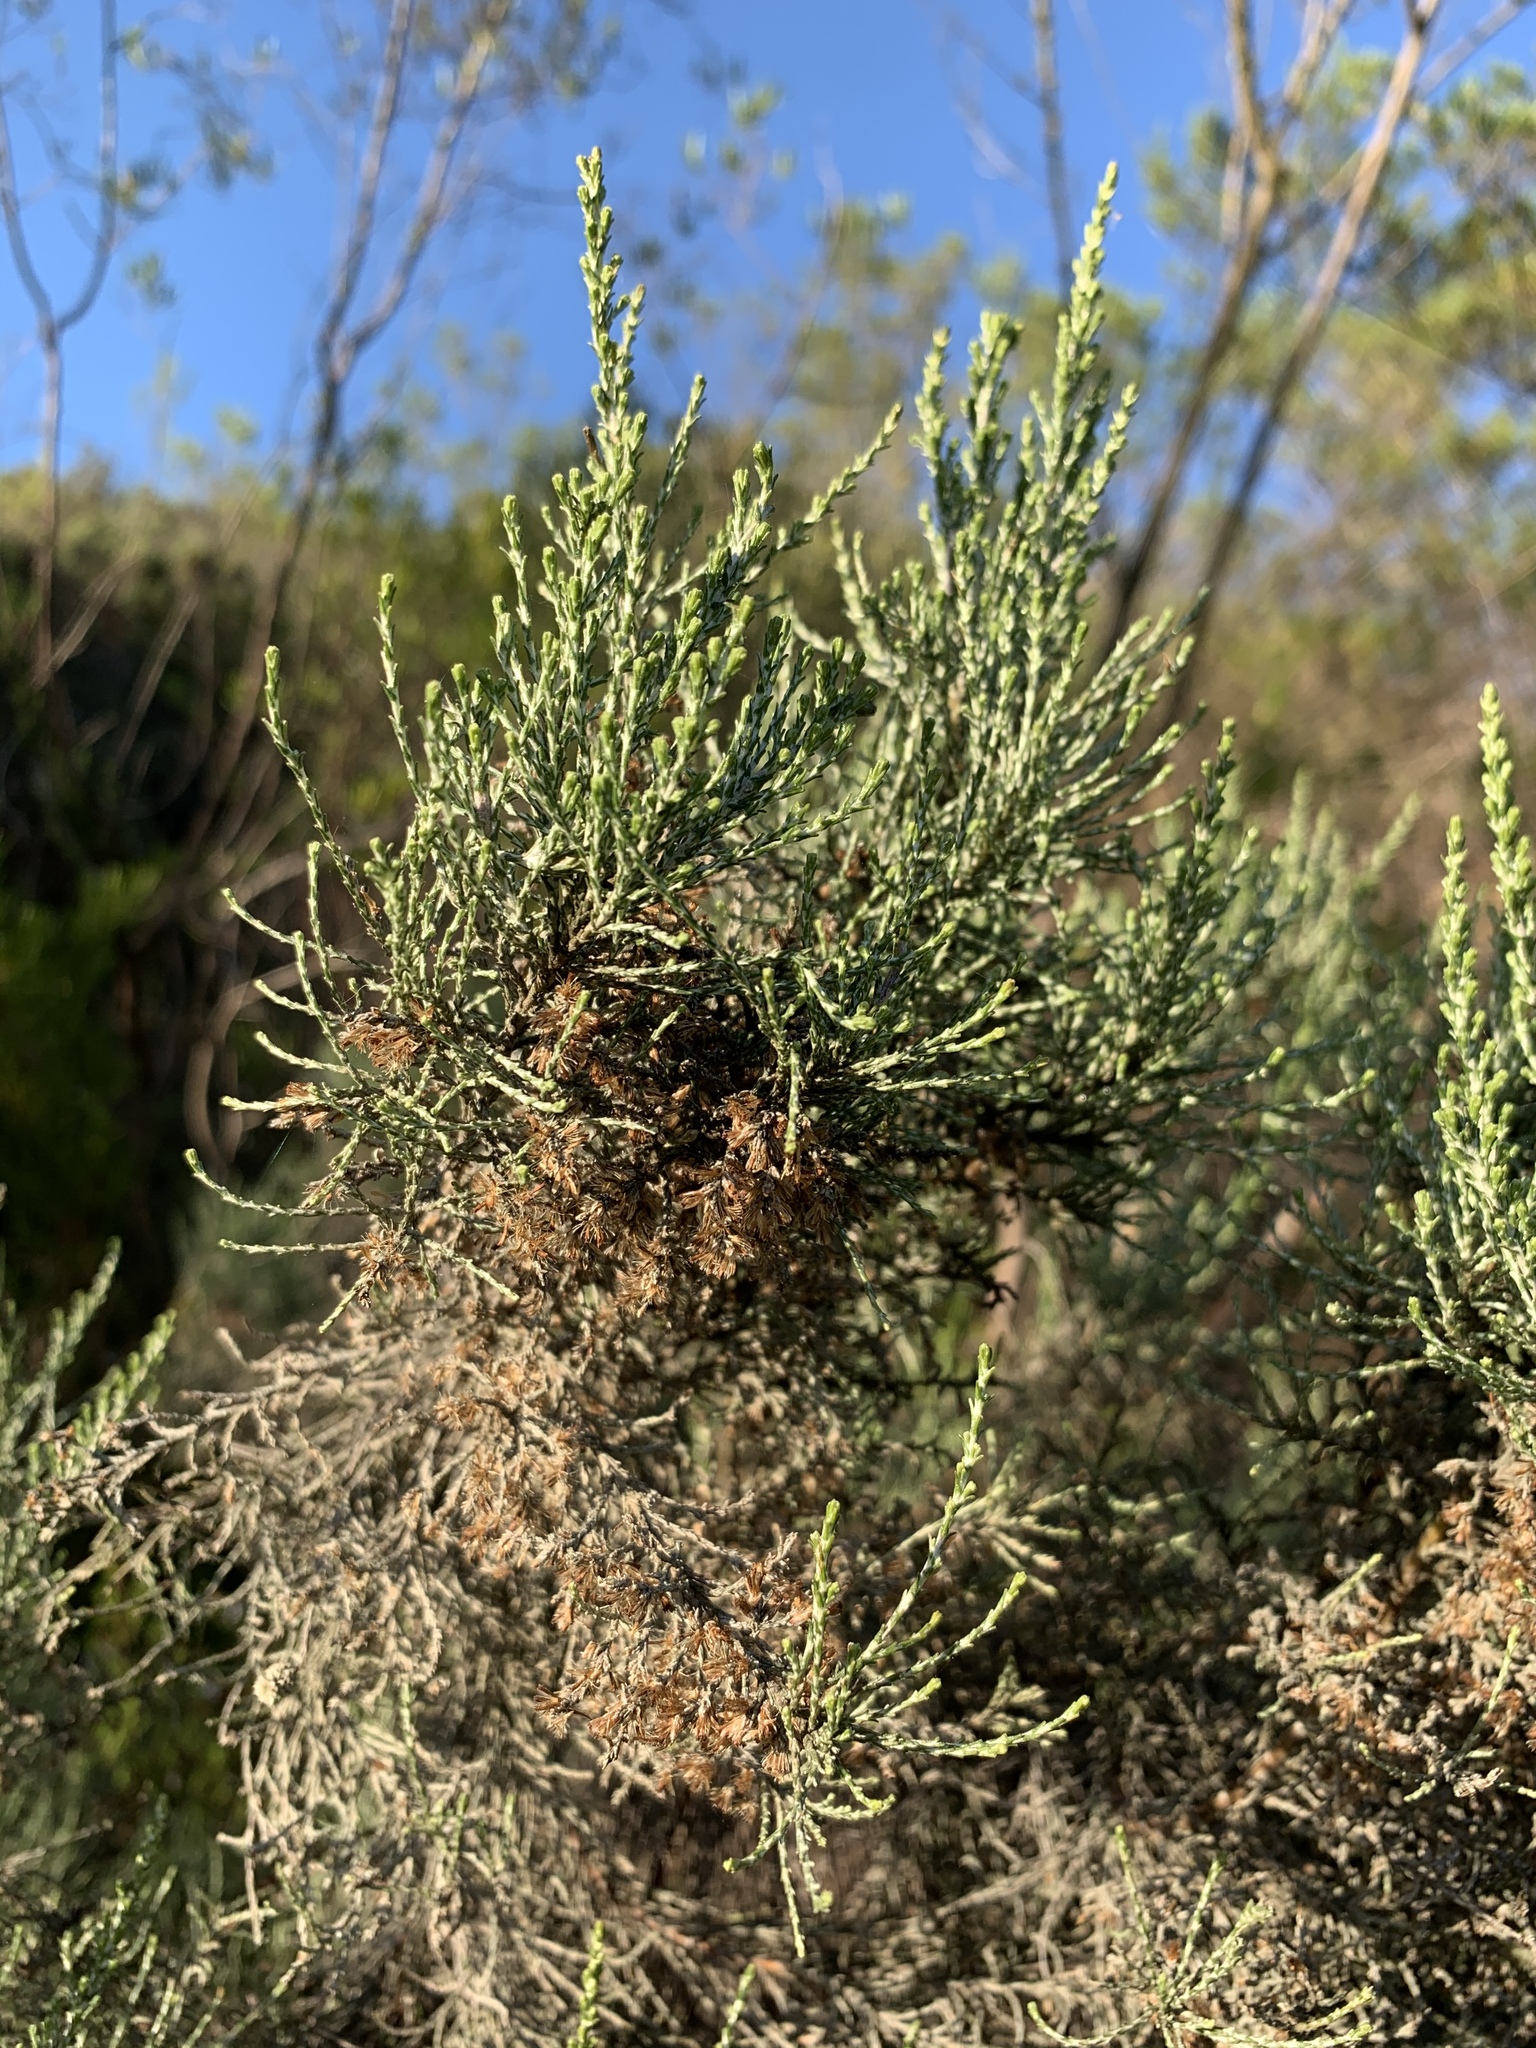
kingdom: Plantae
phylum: Tracheophyta
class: Magnoliopsida
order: Asterales
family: Asteraceae
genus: Dicerothamnus
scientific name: Dicerothamnus rhinocerotis
